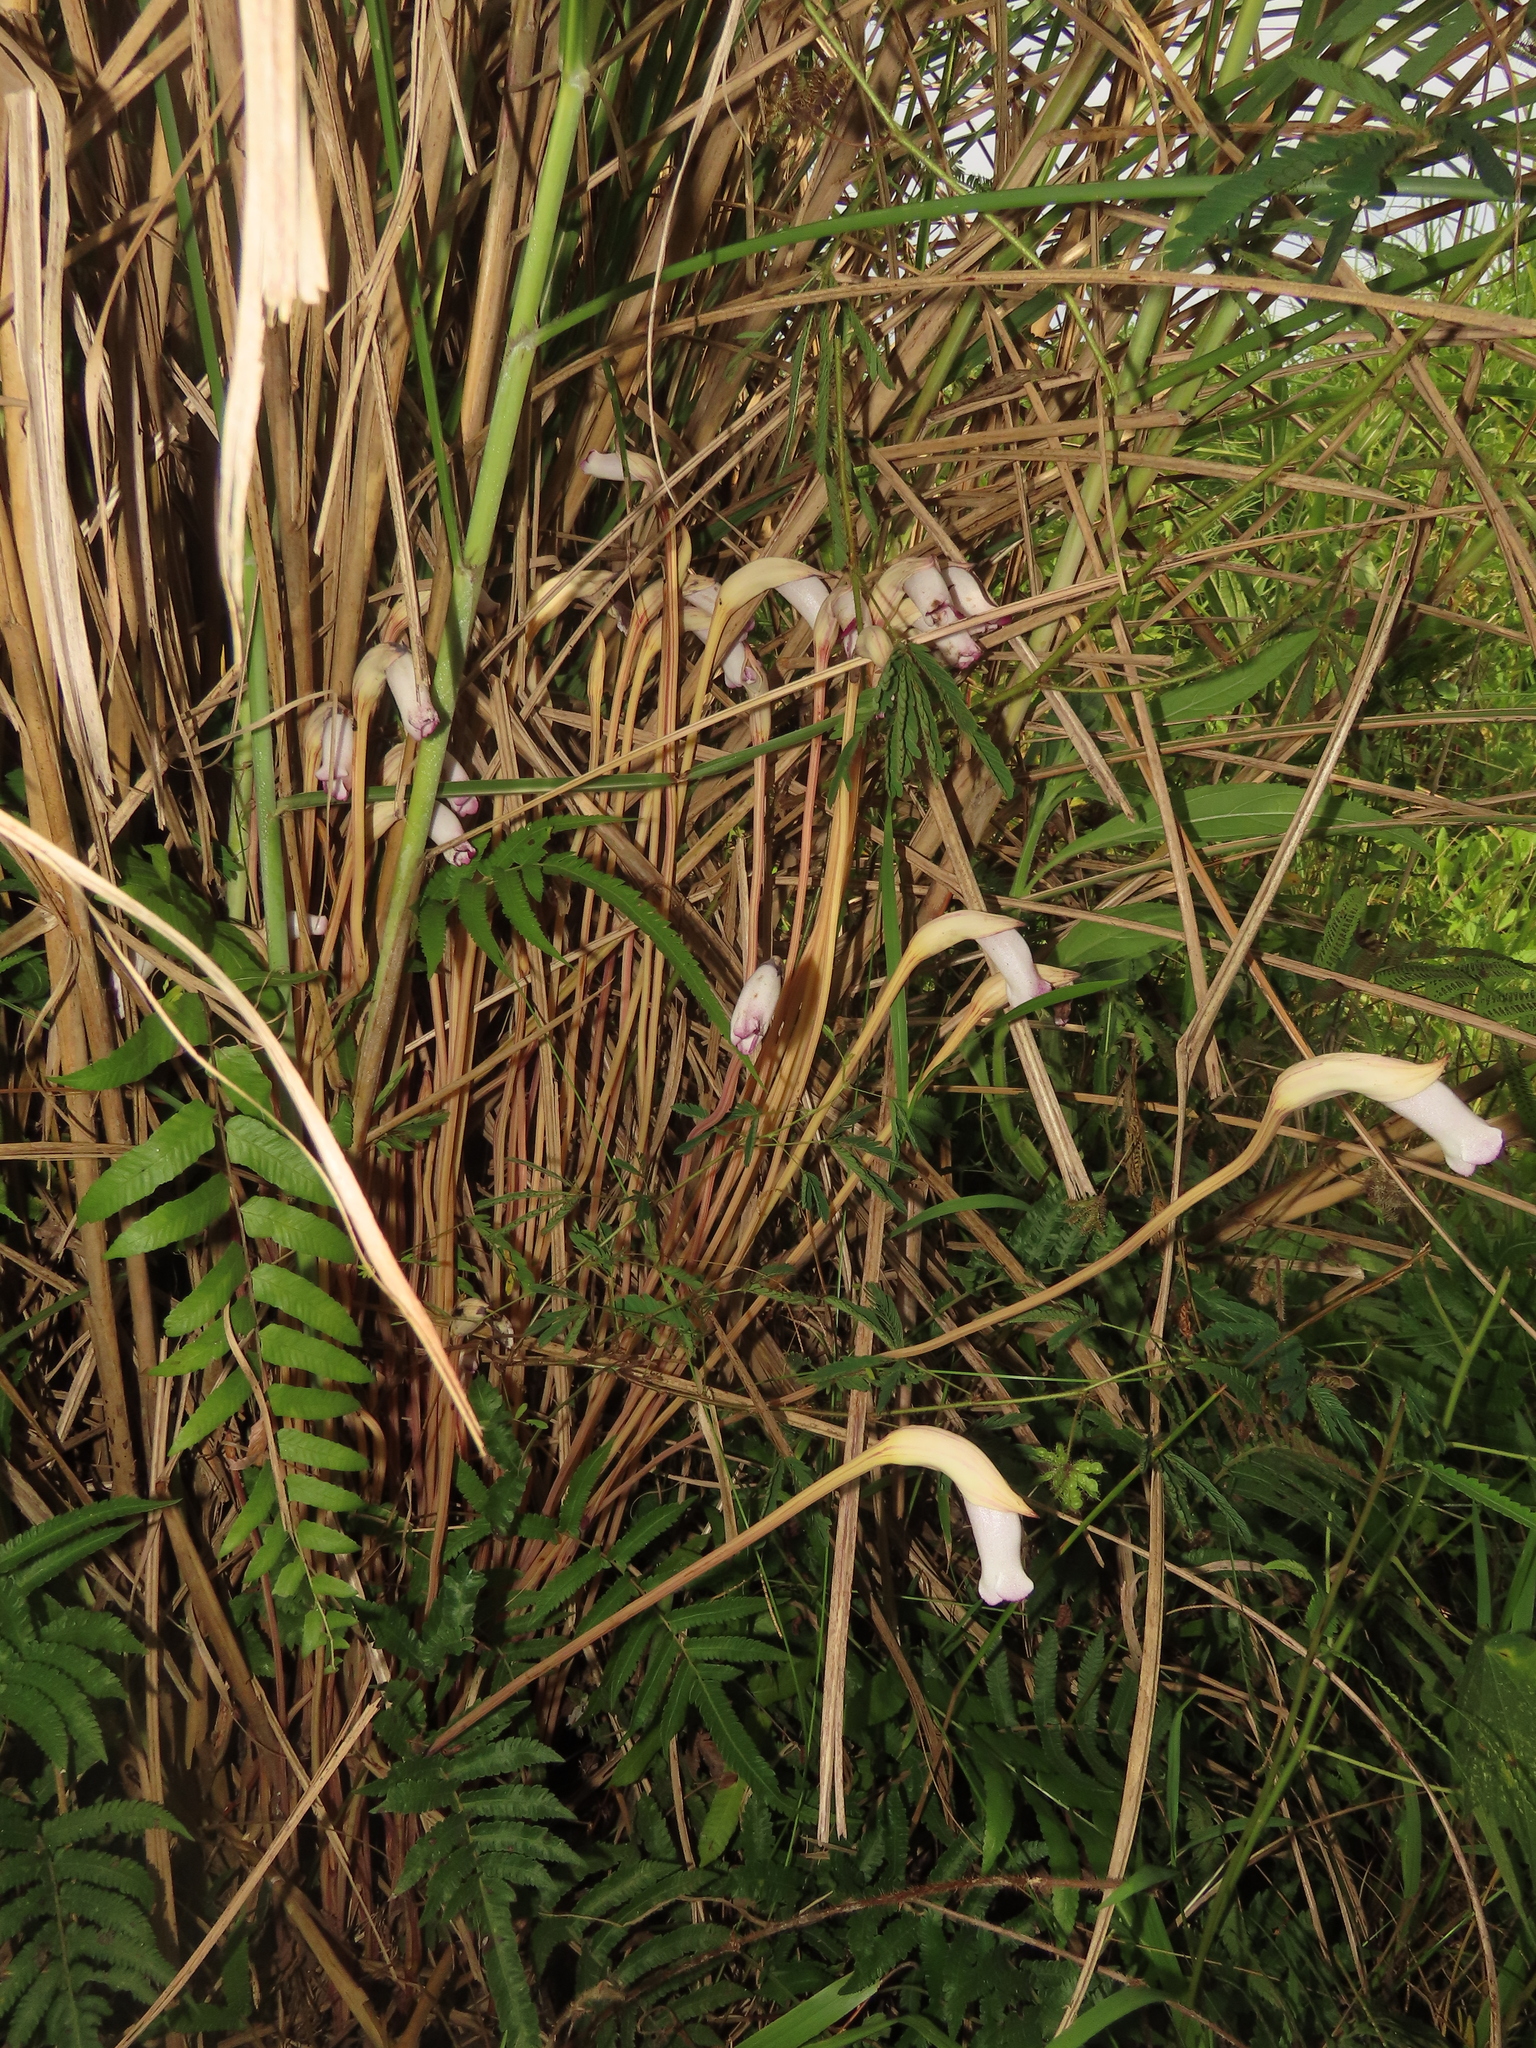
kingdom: Plantae
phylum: Tracheophyta
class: Magnoliopsida
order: Lamiales
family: Orobanchaceae
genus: Aeginetia
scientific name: Aeginetia indica
